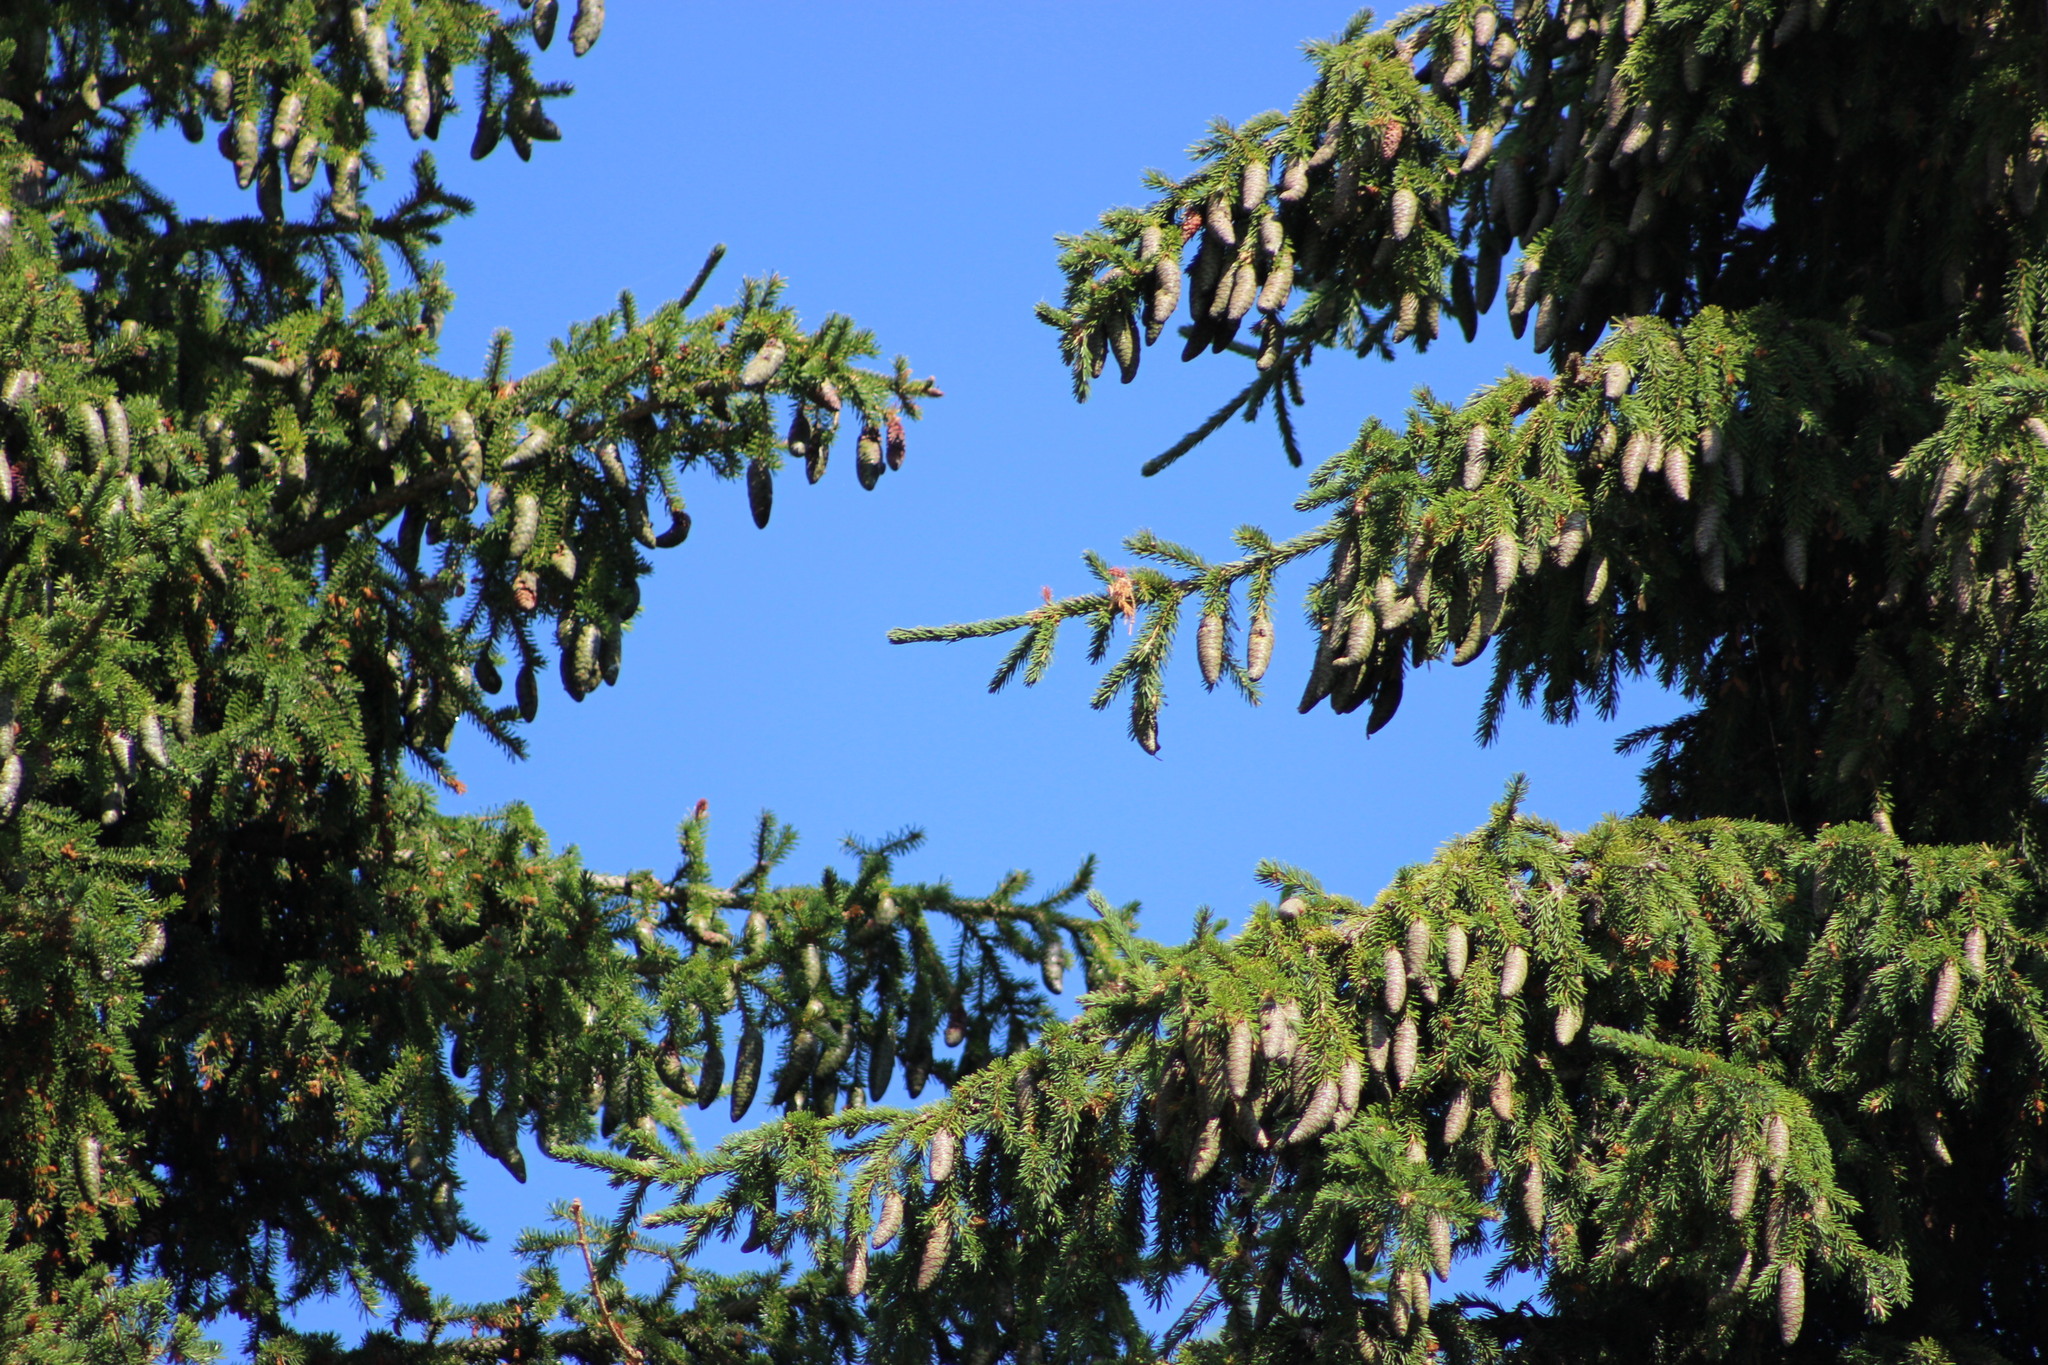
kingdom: Plantae
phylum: Tracheophyta
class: Pinopsida
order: Pinales
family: Pinaceae
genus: Picea
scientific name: Picea obovata
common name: Siberian spruce
